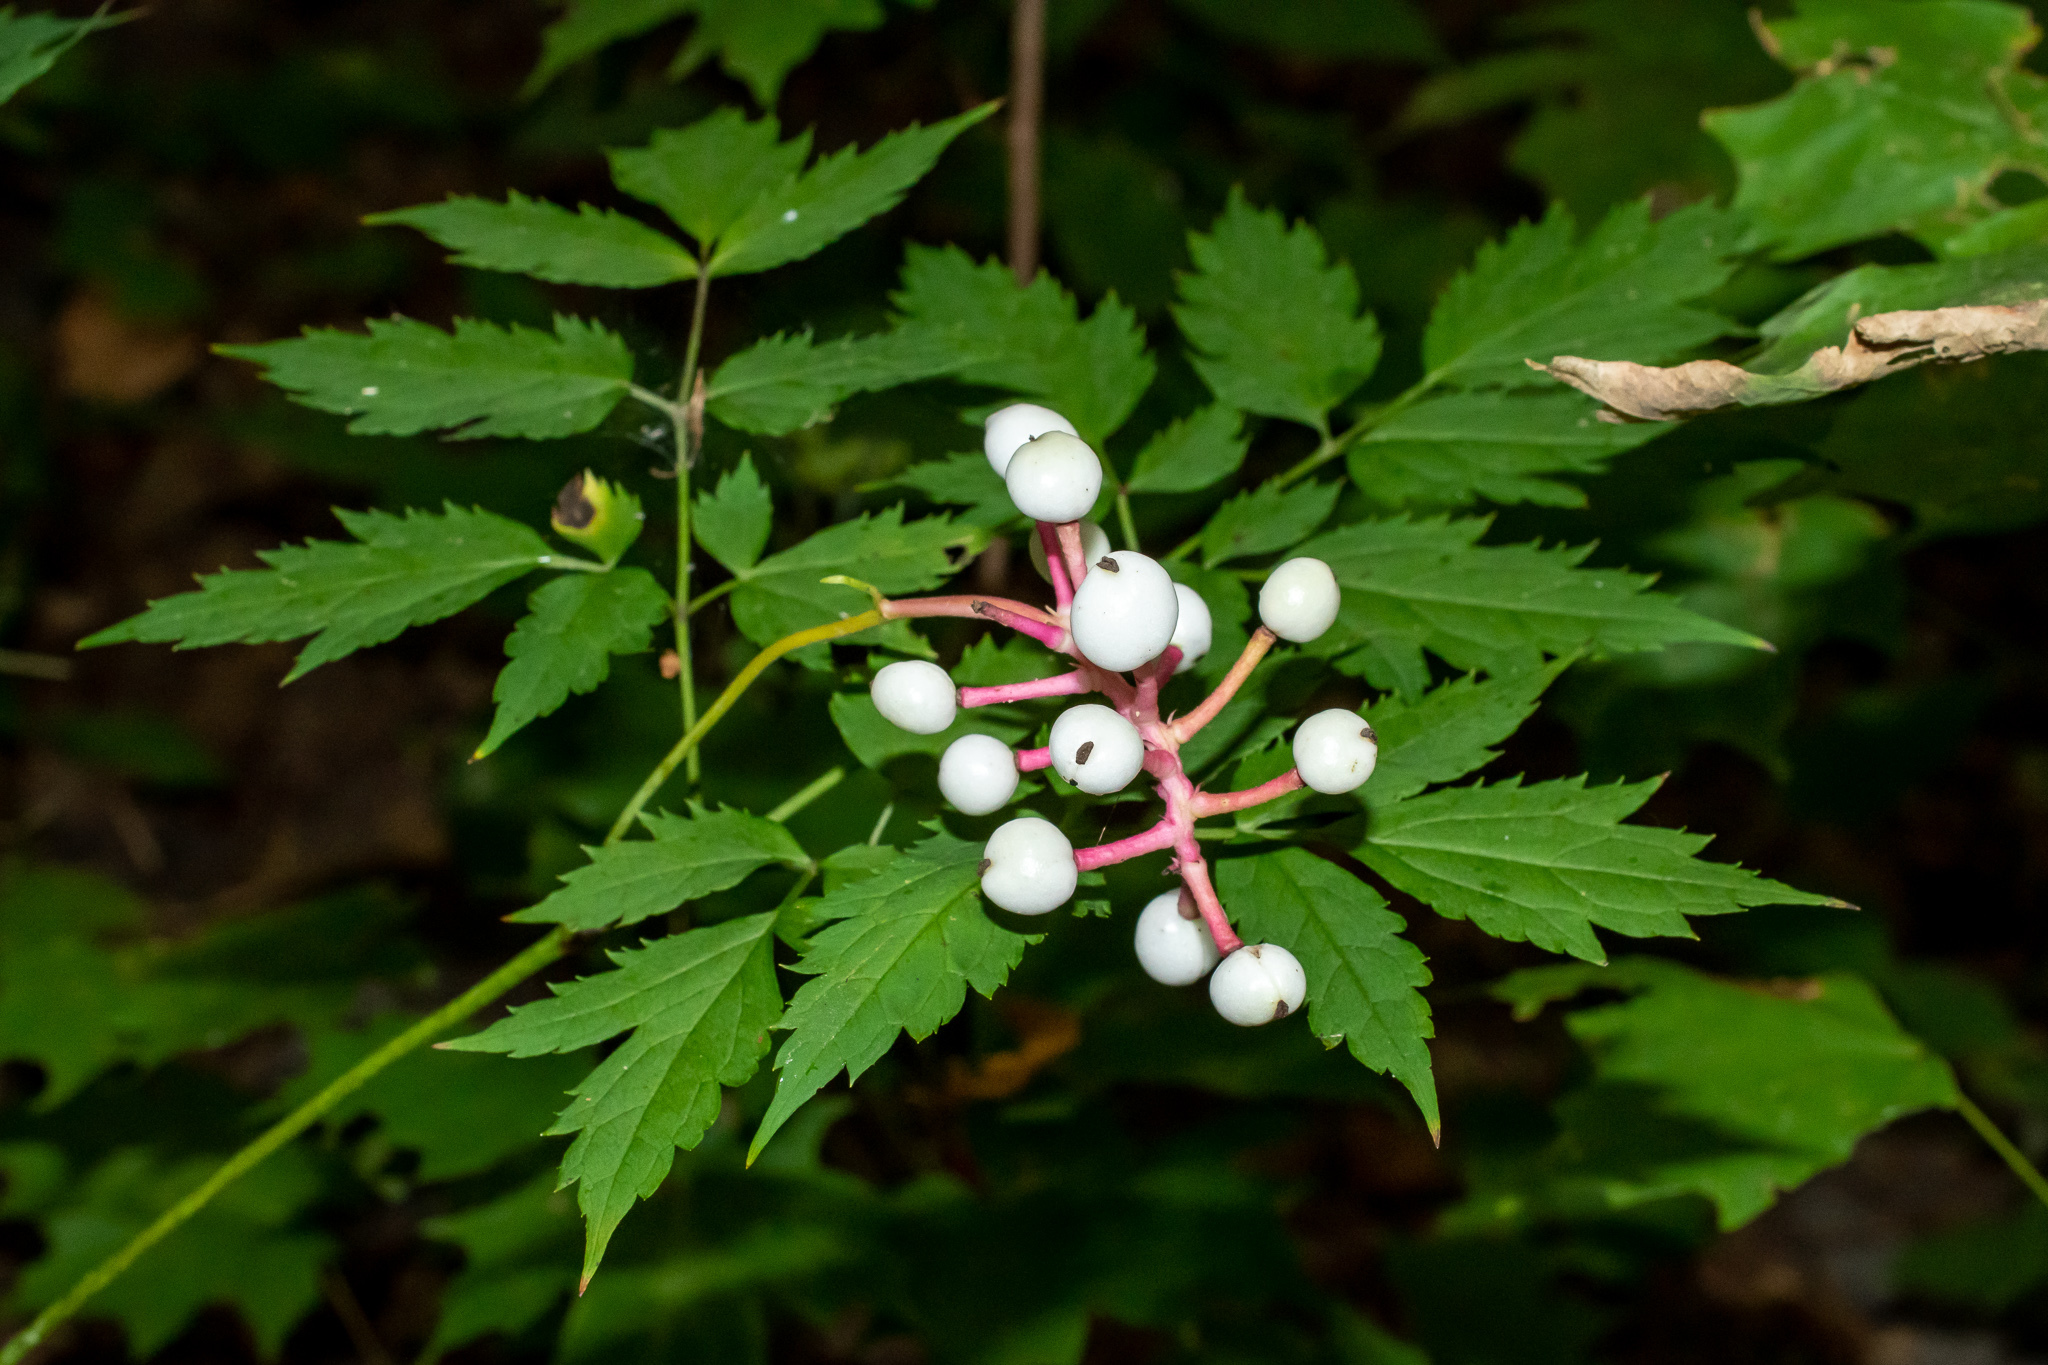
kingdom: Plantae
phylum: Tracheophyta
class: Magnoliopsida
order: Ranunculales
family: Ranunculaceae
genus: Actaea
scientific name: Actaea pachypoda
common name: Doll's-eyes
